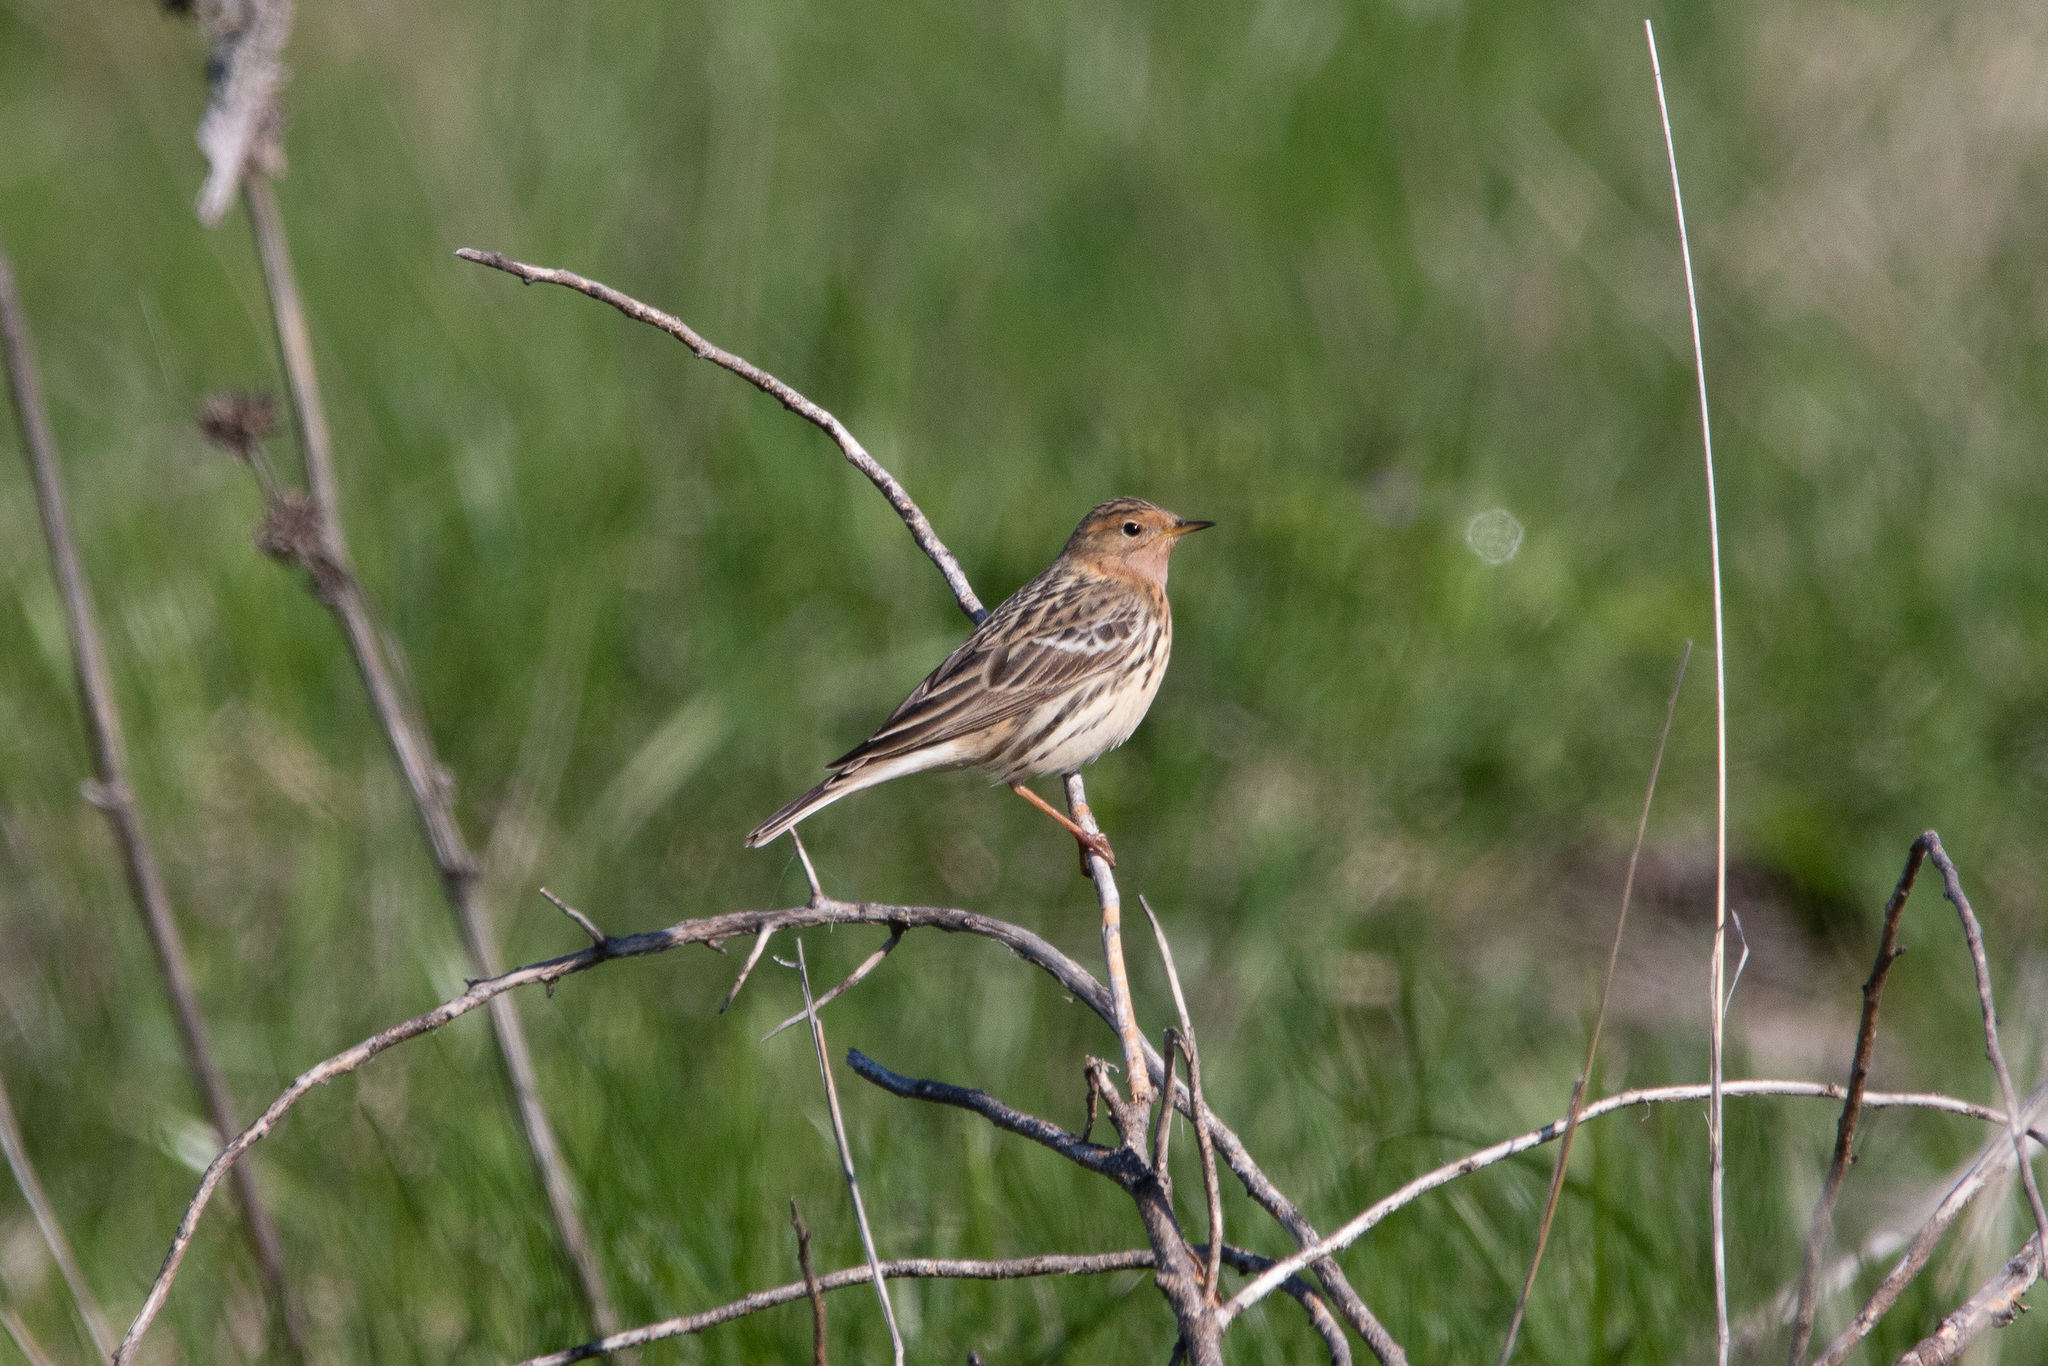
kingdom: Animalia
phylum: Chordata
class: Aves
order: Passeriformes
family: Motacillidae
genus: Anthus
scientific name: Anthus cervinus
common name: Red-throated pipit
